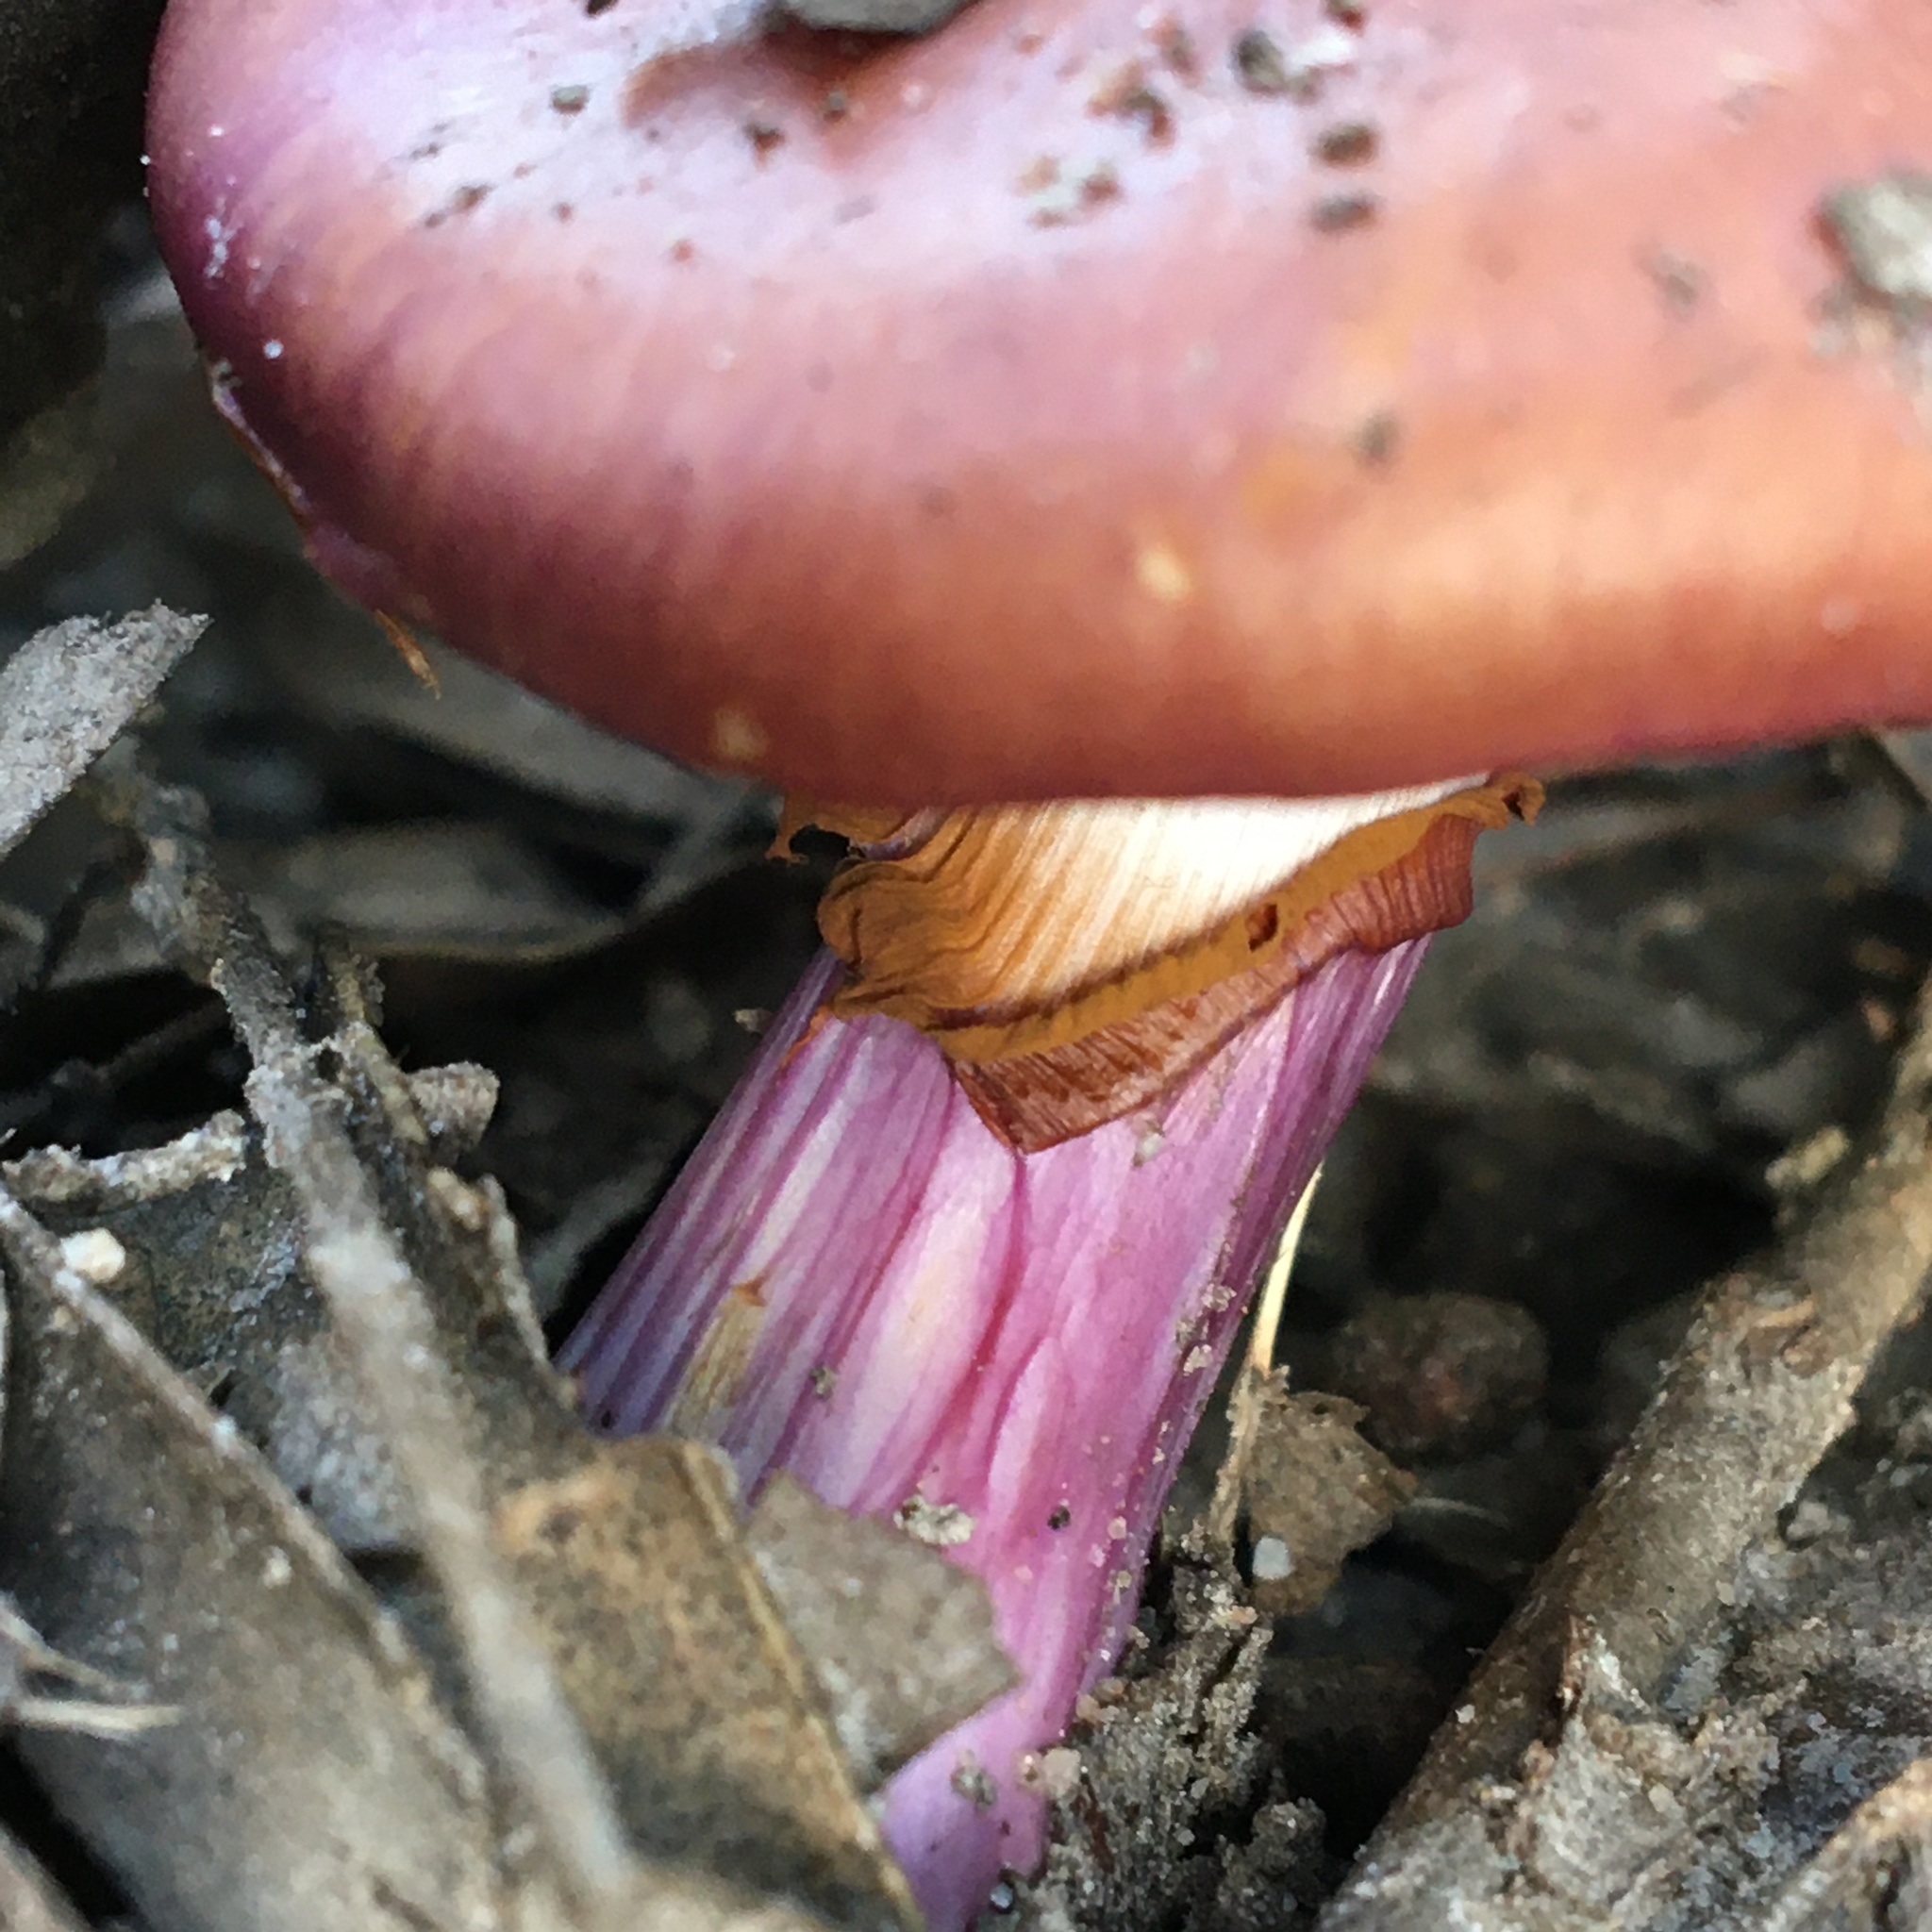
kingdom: Fungi
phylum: Basidiomycota
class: Agaricomycetes
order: Agaricales
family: Cortinariaceae
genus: Cortinarius
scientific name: Cortinarius archeri
